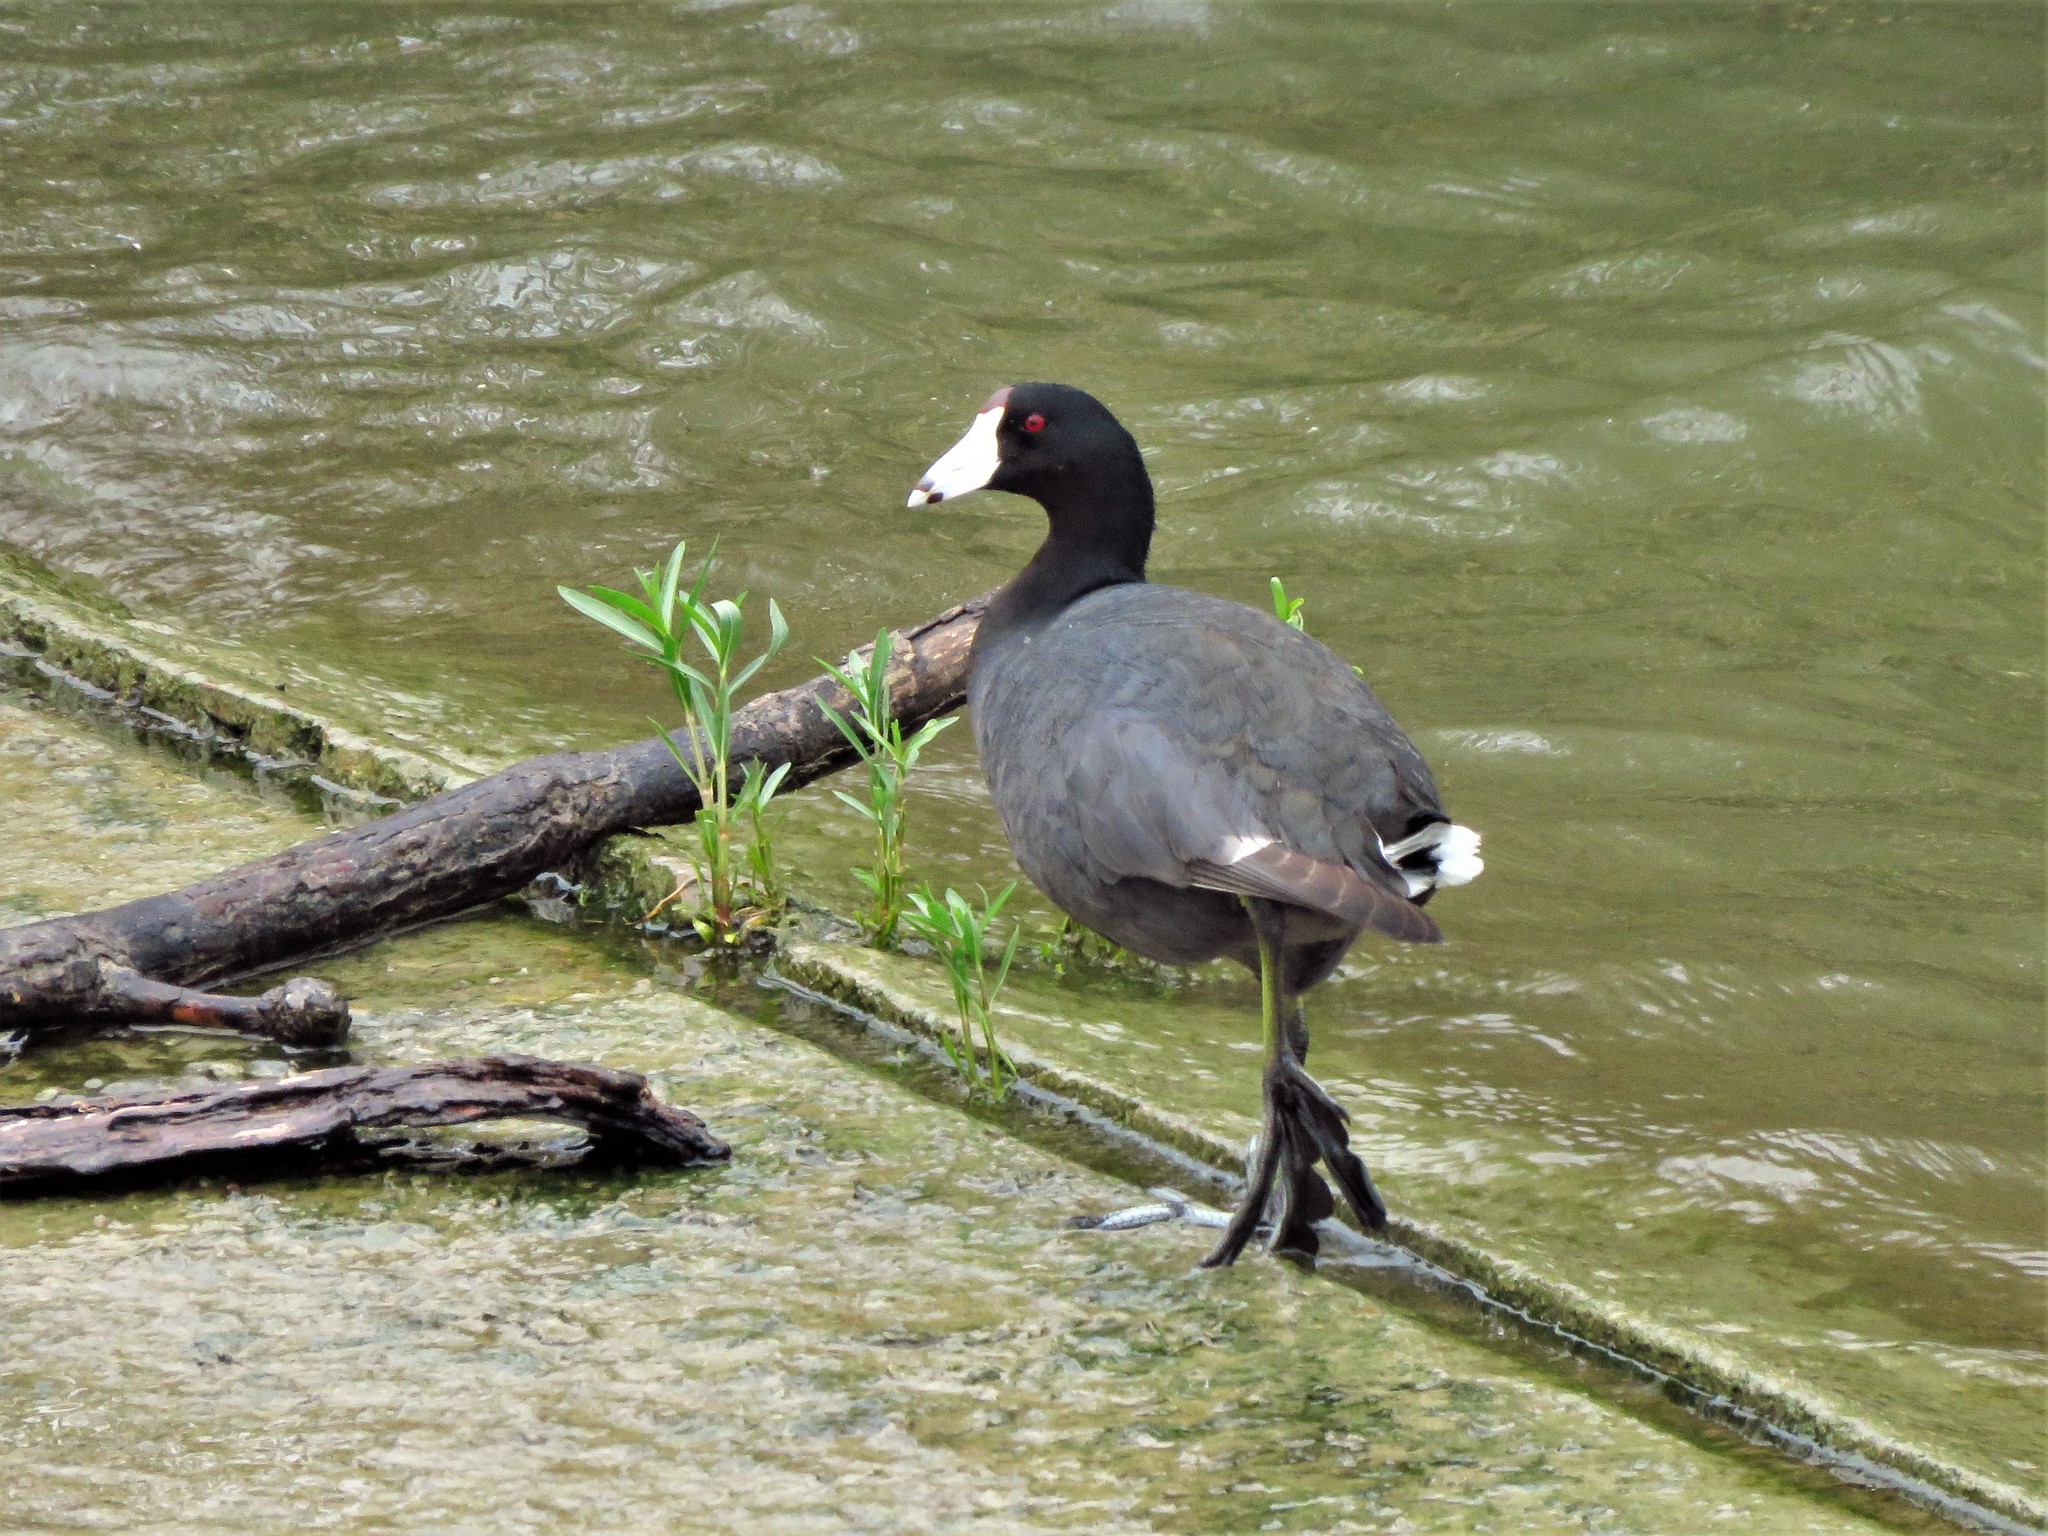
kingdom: Animalia
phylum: Chordata
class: Aves
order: Gruiformes
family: Rallidae
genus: Fulica
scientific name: Fulica americana
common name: American coot
